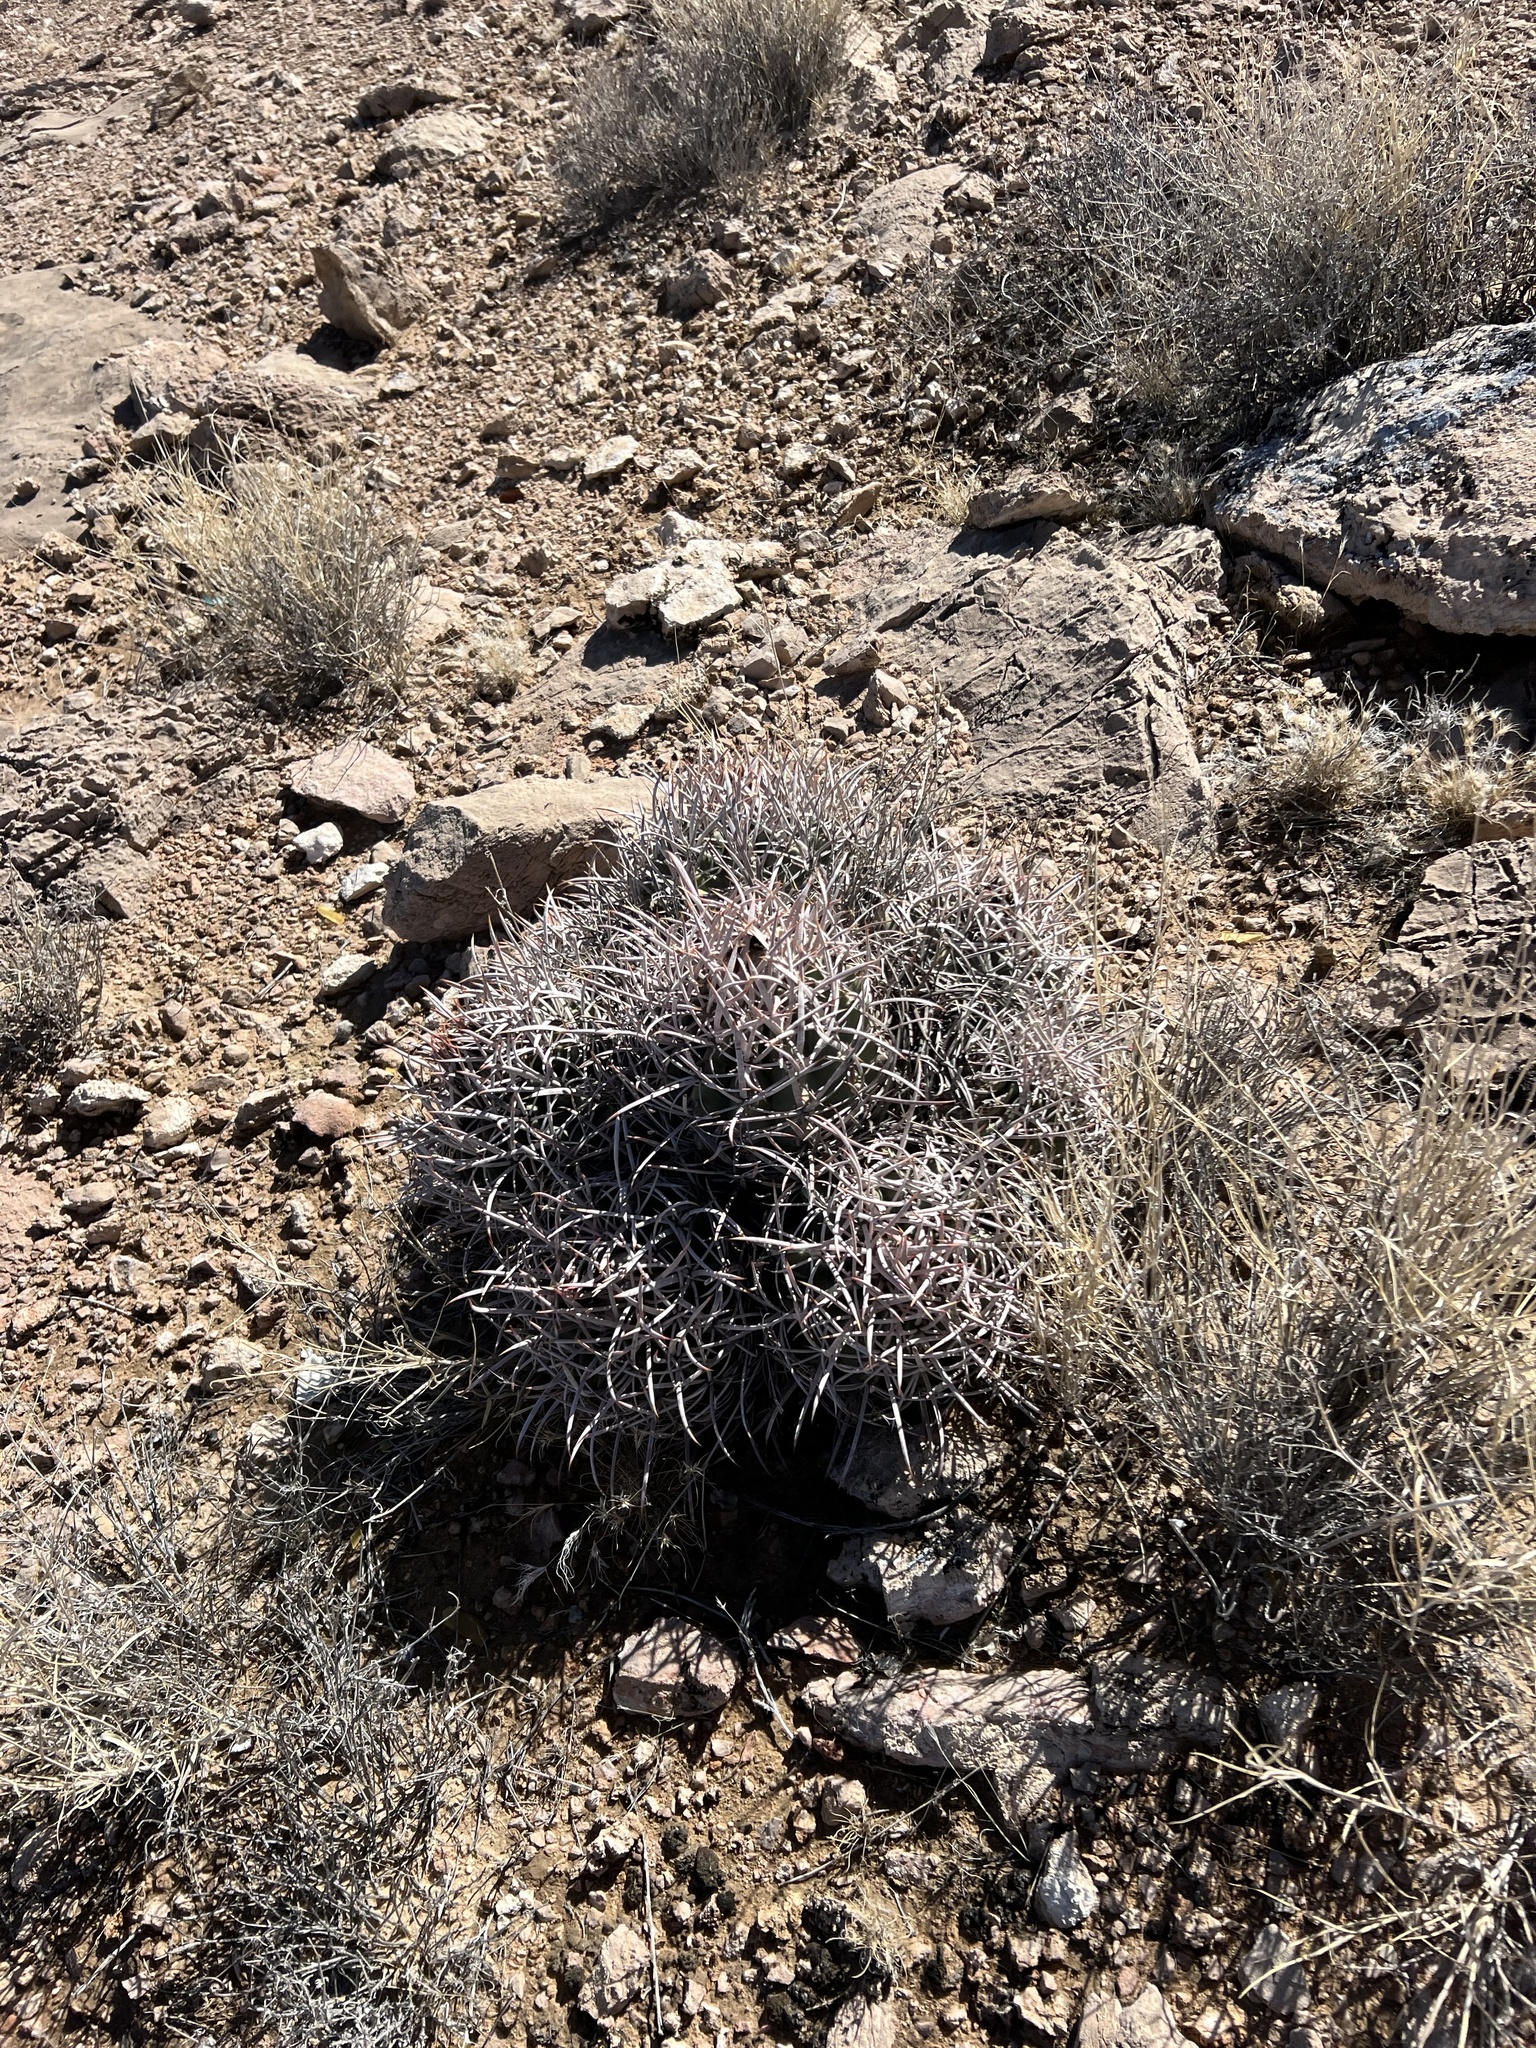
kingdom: Plantae
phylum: Tracheophyta
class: Magnoliopsida
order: Caryophyllales
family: Cactaceae
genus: Echinocactus
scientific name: Echinocactus polycephalus
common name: Cottontop cactus
